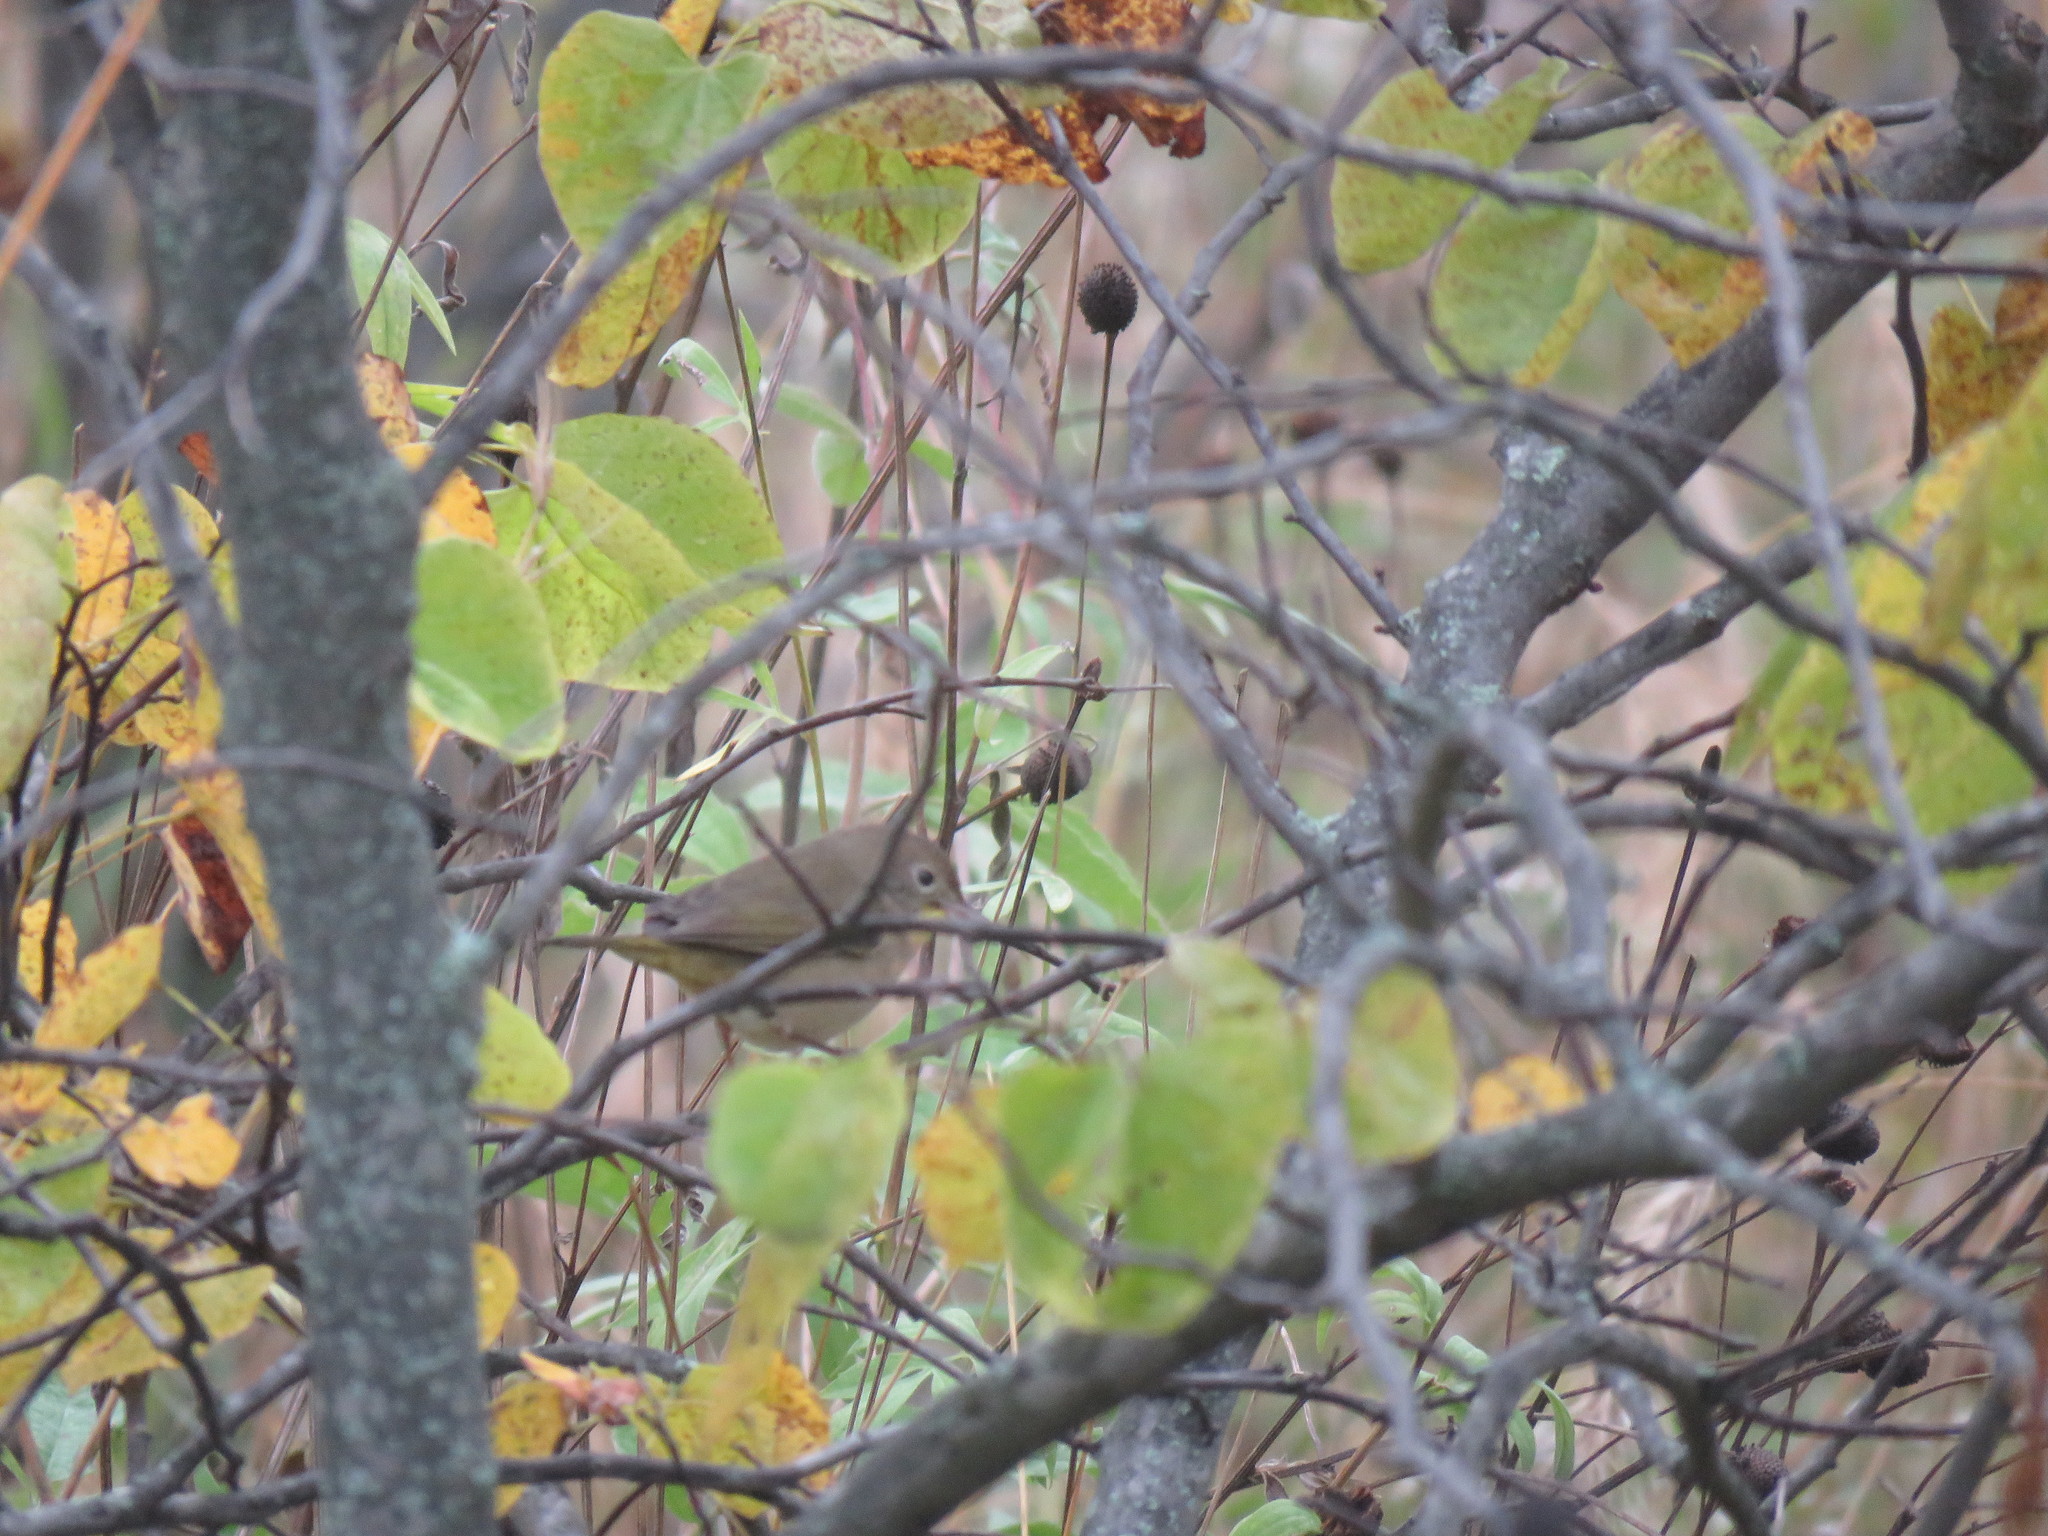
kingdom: Animalia
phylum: Chordata
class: Aves
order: Passeriformes
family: Parulidae
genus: Geothlypis
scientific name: Geothlypis trichas
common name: Common yellowthroat
